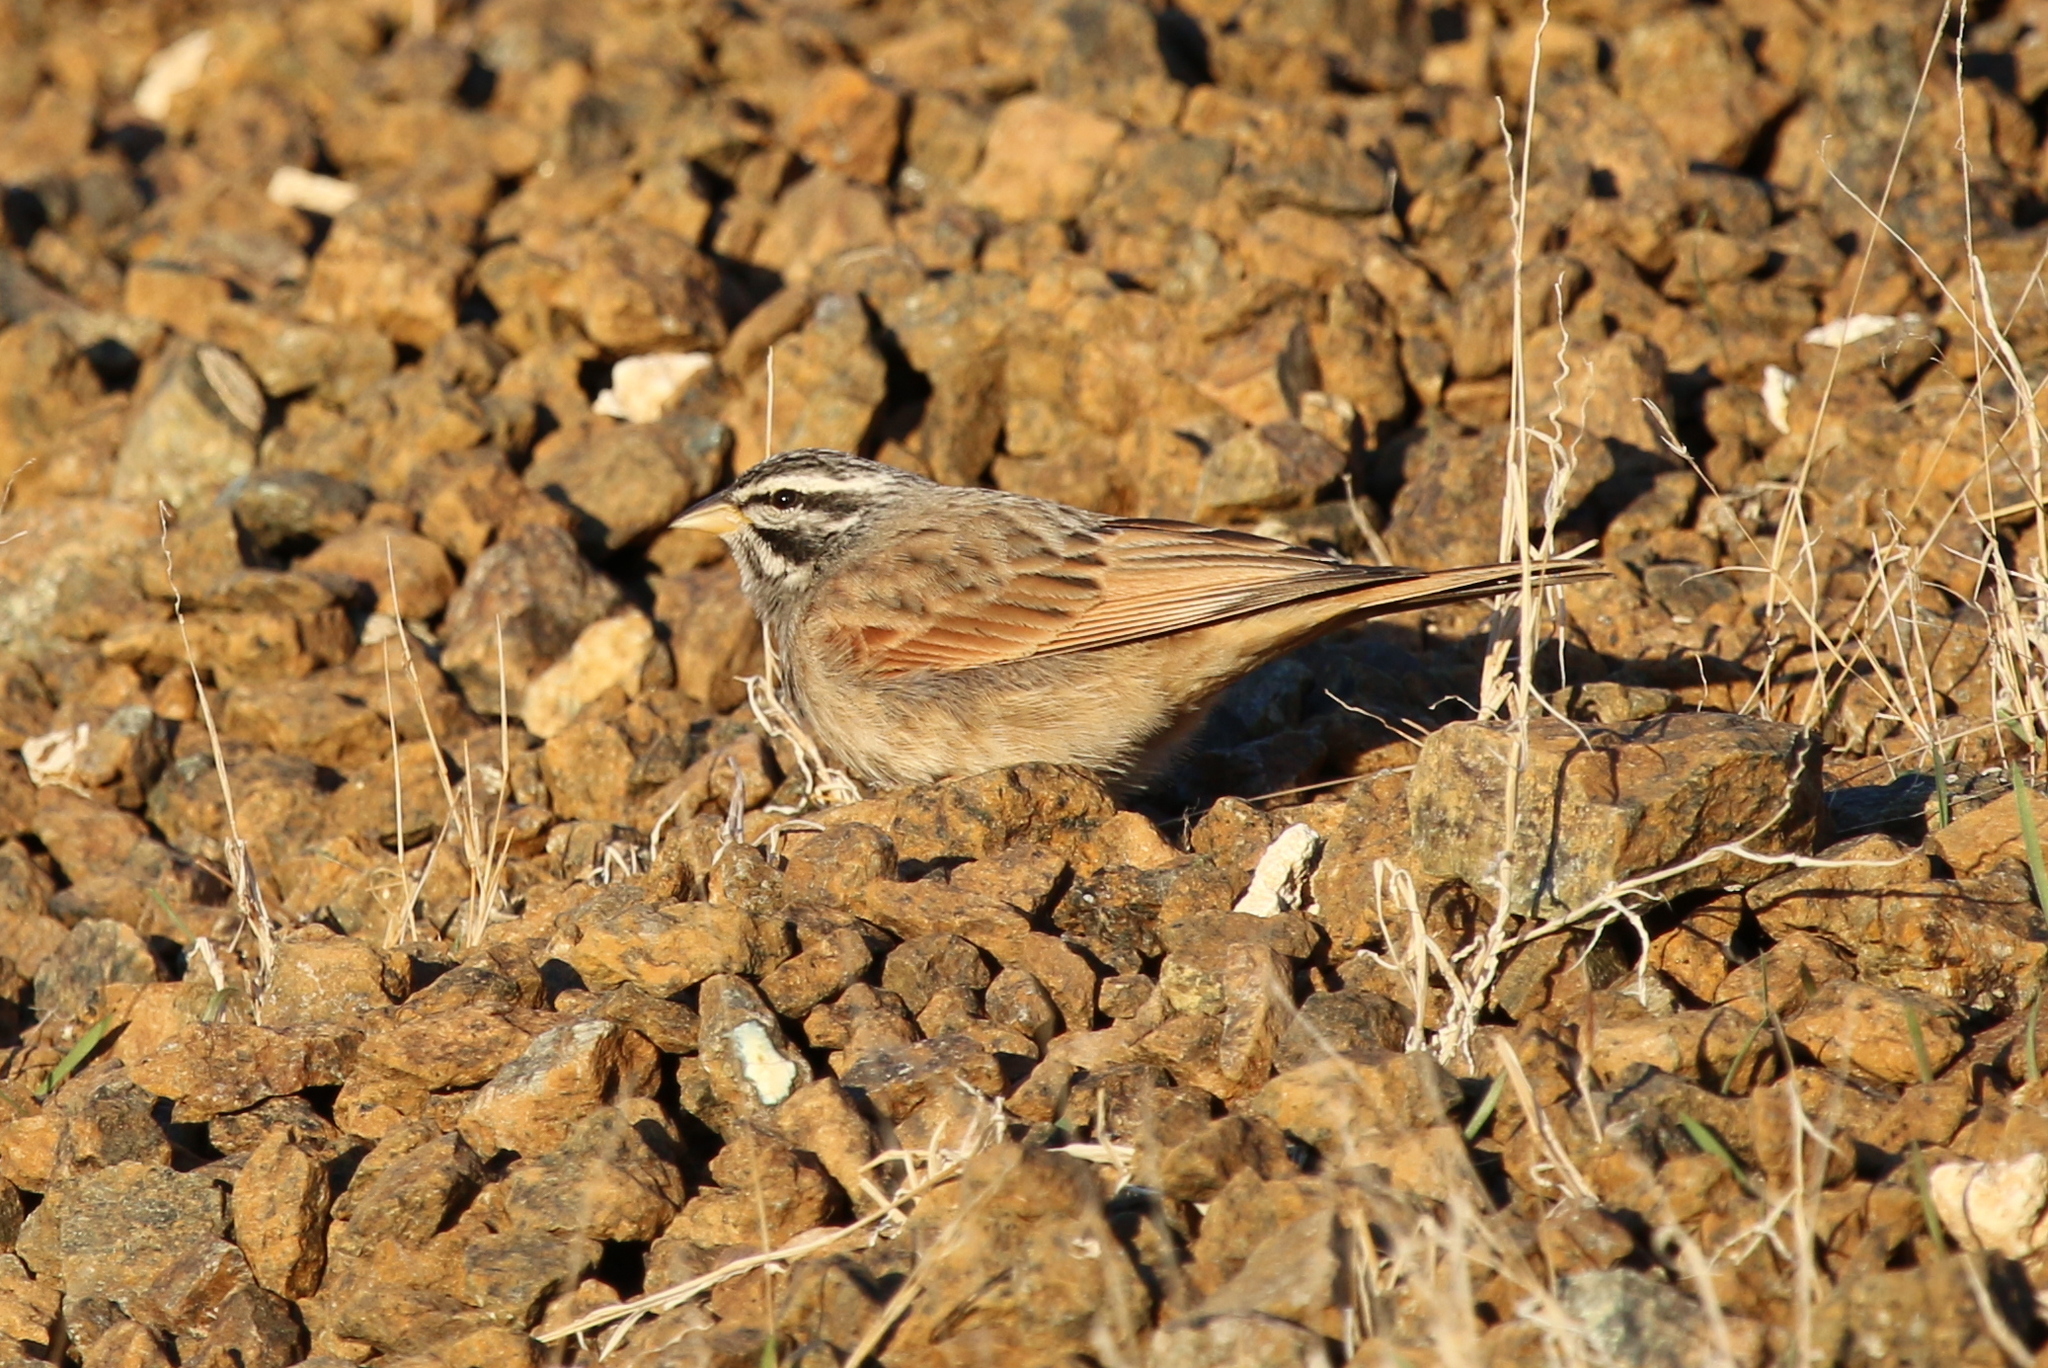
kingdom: Animalia
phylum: Chordata
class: Aves
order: Passeriformes
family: Emberizidae
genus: Emberiza
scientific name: Emberiza striolata
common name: Striolated bunting
